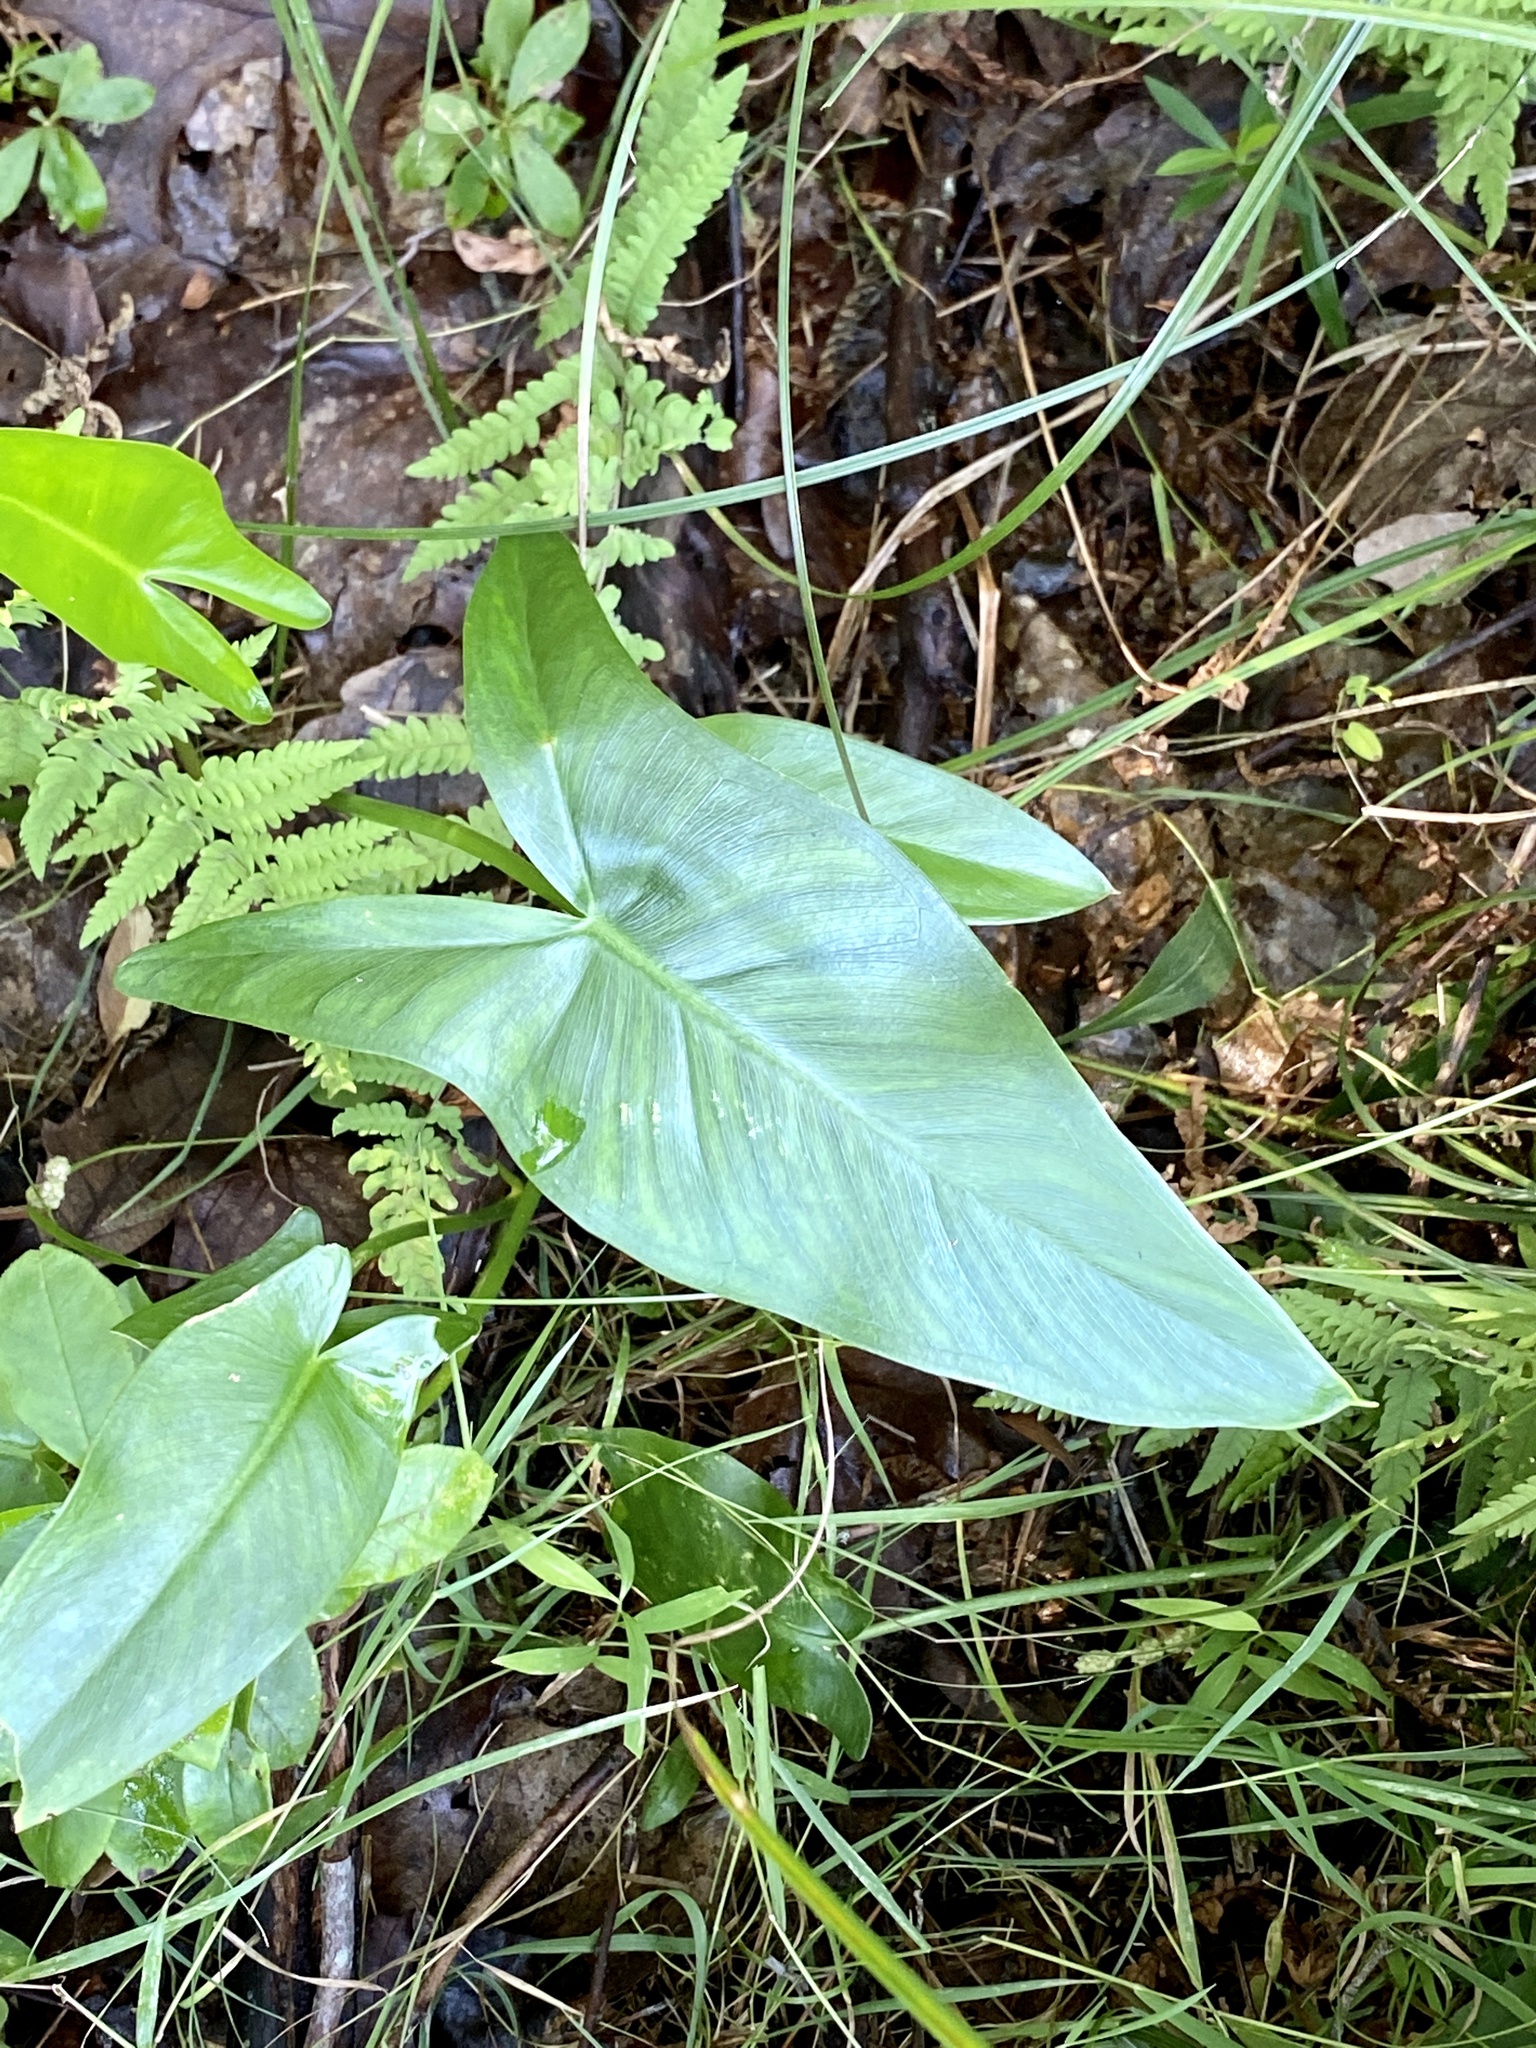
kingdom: Plantae
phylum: Tracheophyta
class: Liliopsida
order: Alismatales
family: Araceae
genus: Peltandra
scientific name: Peltandra virginica
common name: Arrow arum
